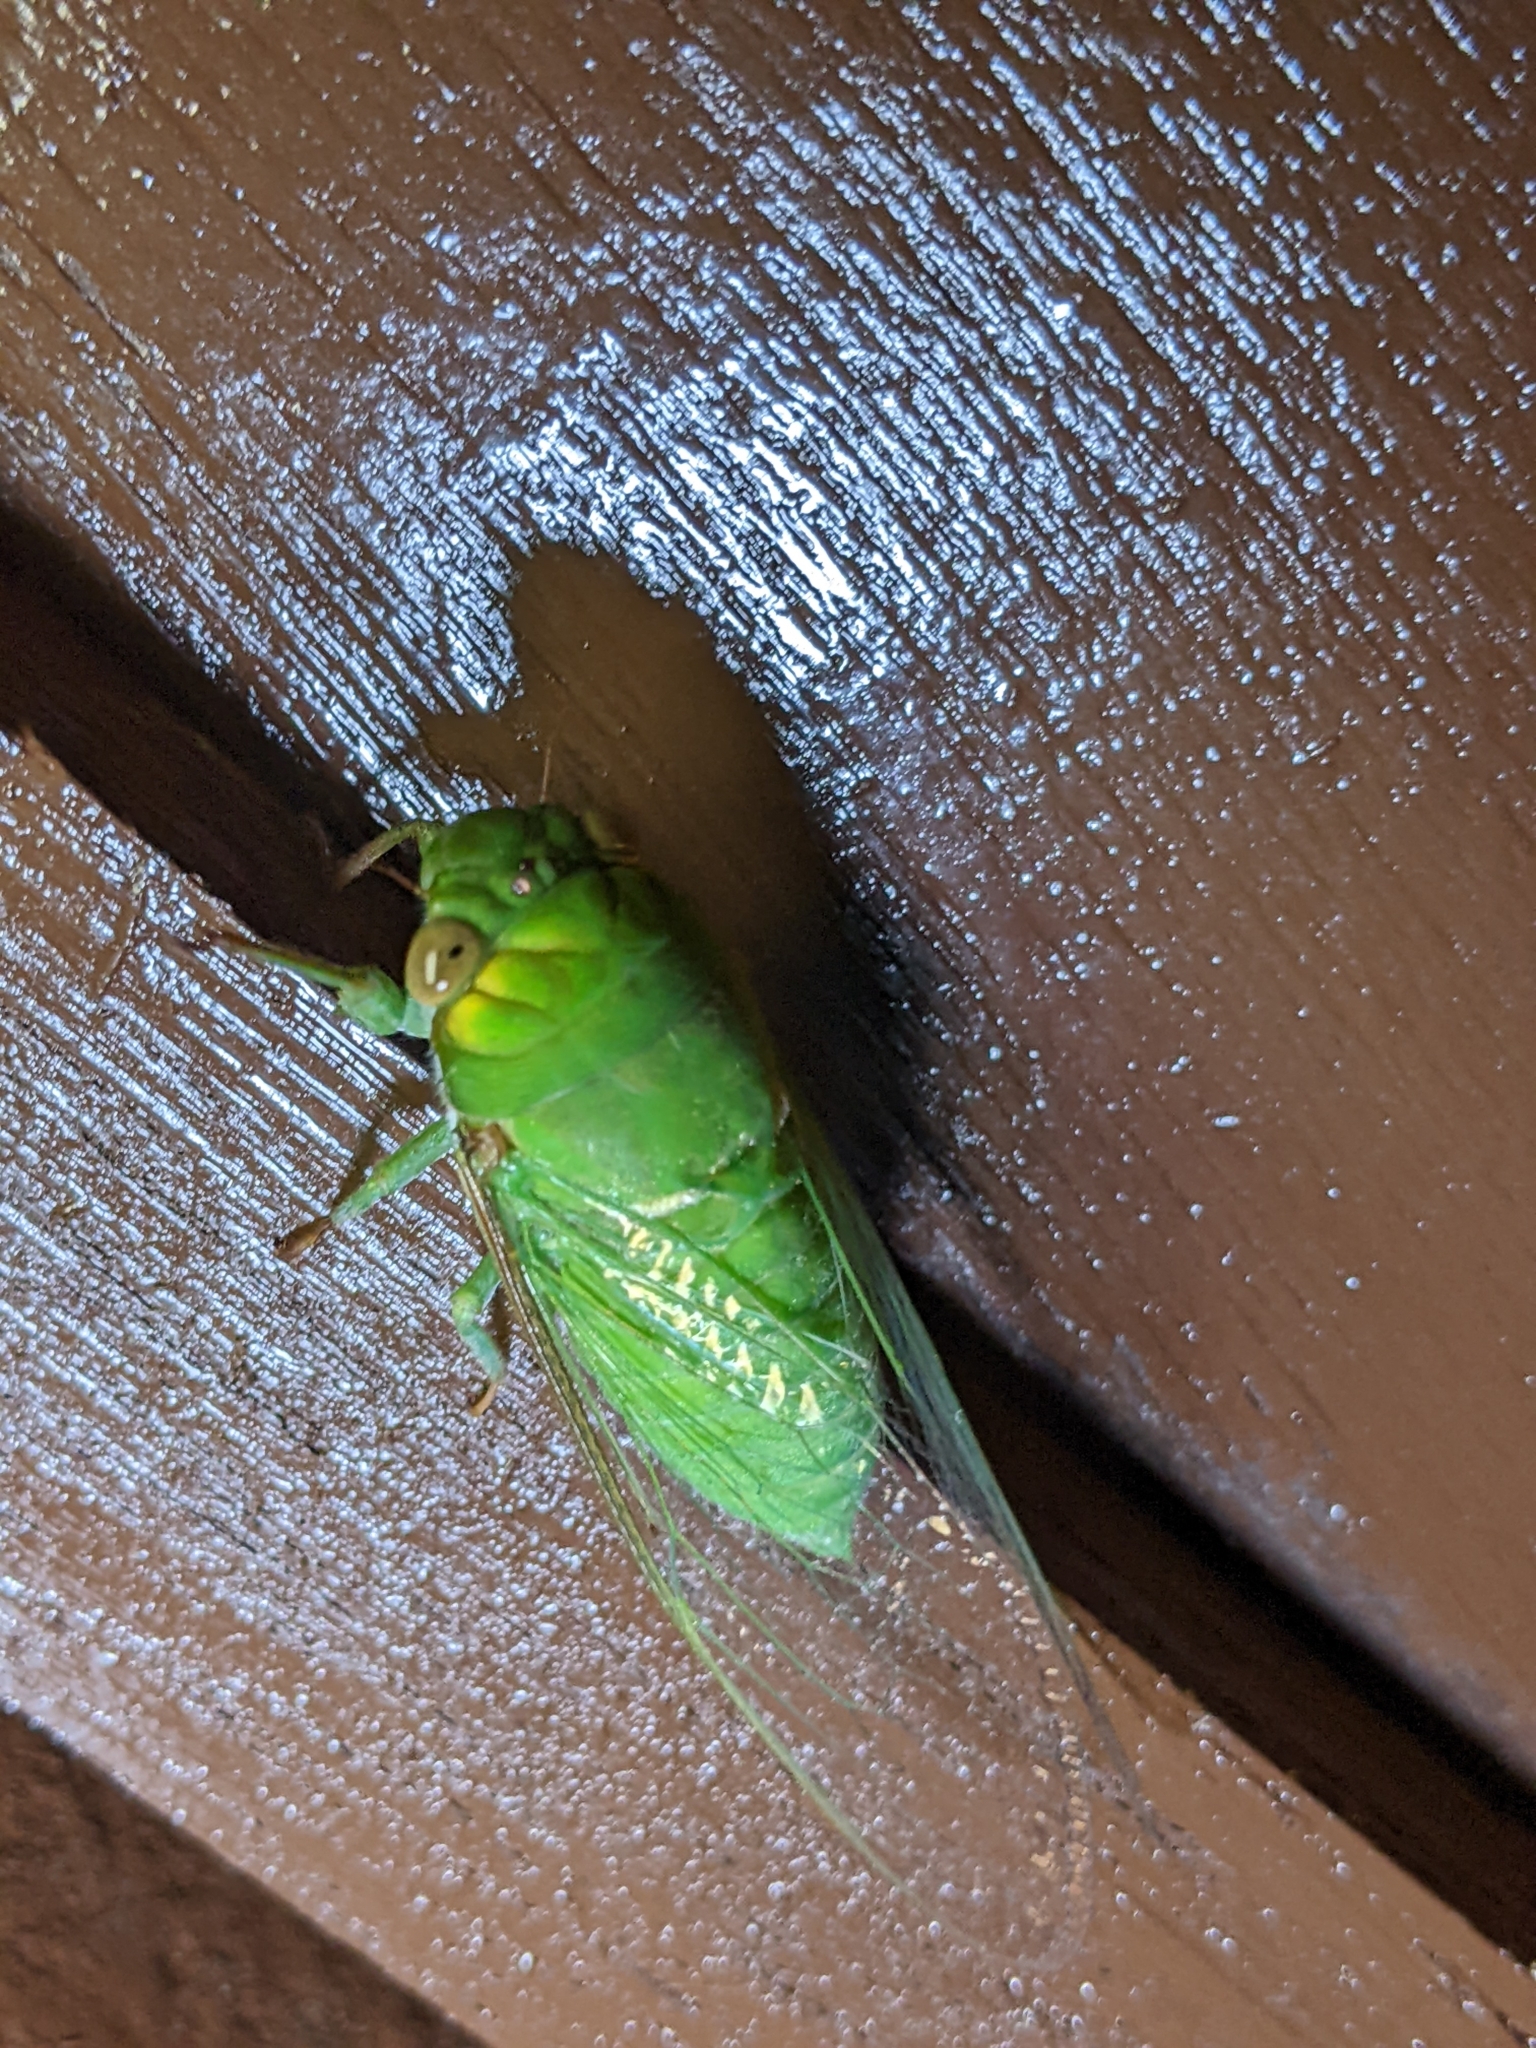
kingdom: Animalia
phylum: Arthropoda
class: Insecta
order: Hemiptera
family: Cicadidae
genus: Dundubia
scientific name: Dundubia rufivena
